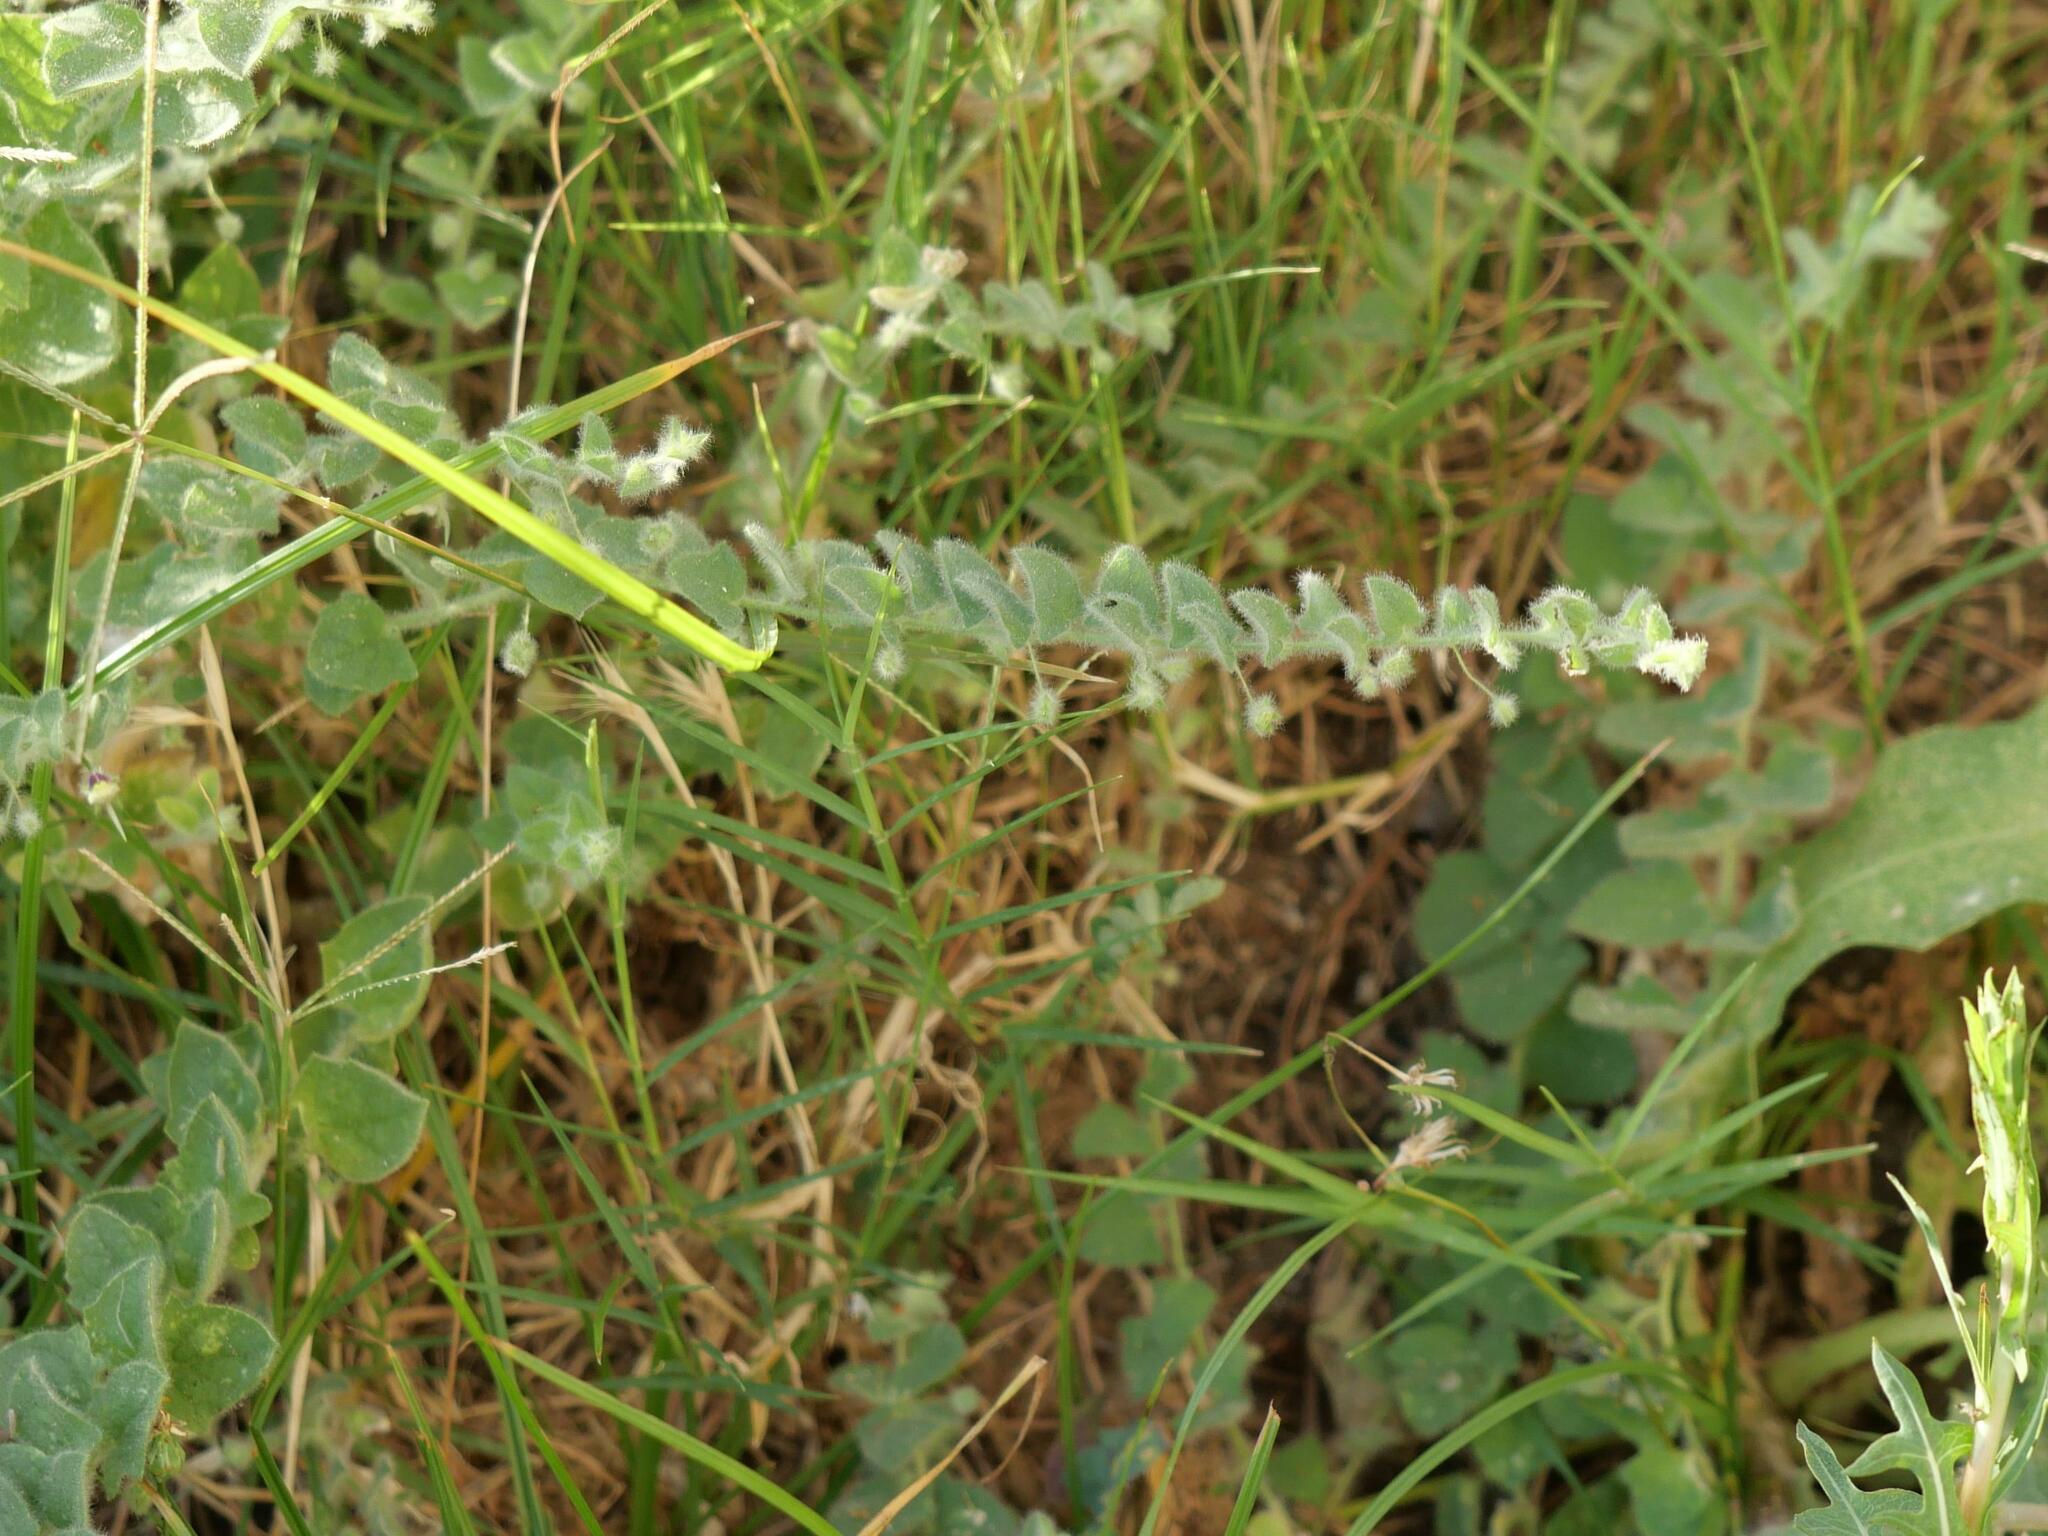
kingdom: Plantae
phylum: Tracheophyta
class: Magnoliopsida
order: Lamiales
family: Plantaginaceae
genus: Kickxia
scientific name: Kickxia elatine
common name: Sharp-leaved fluellen
